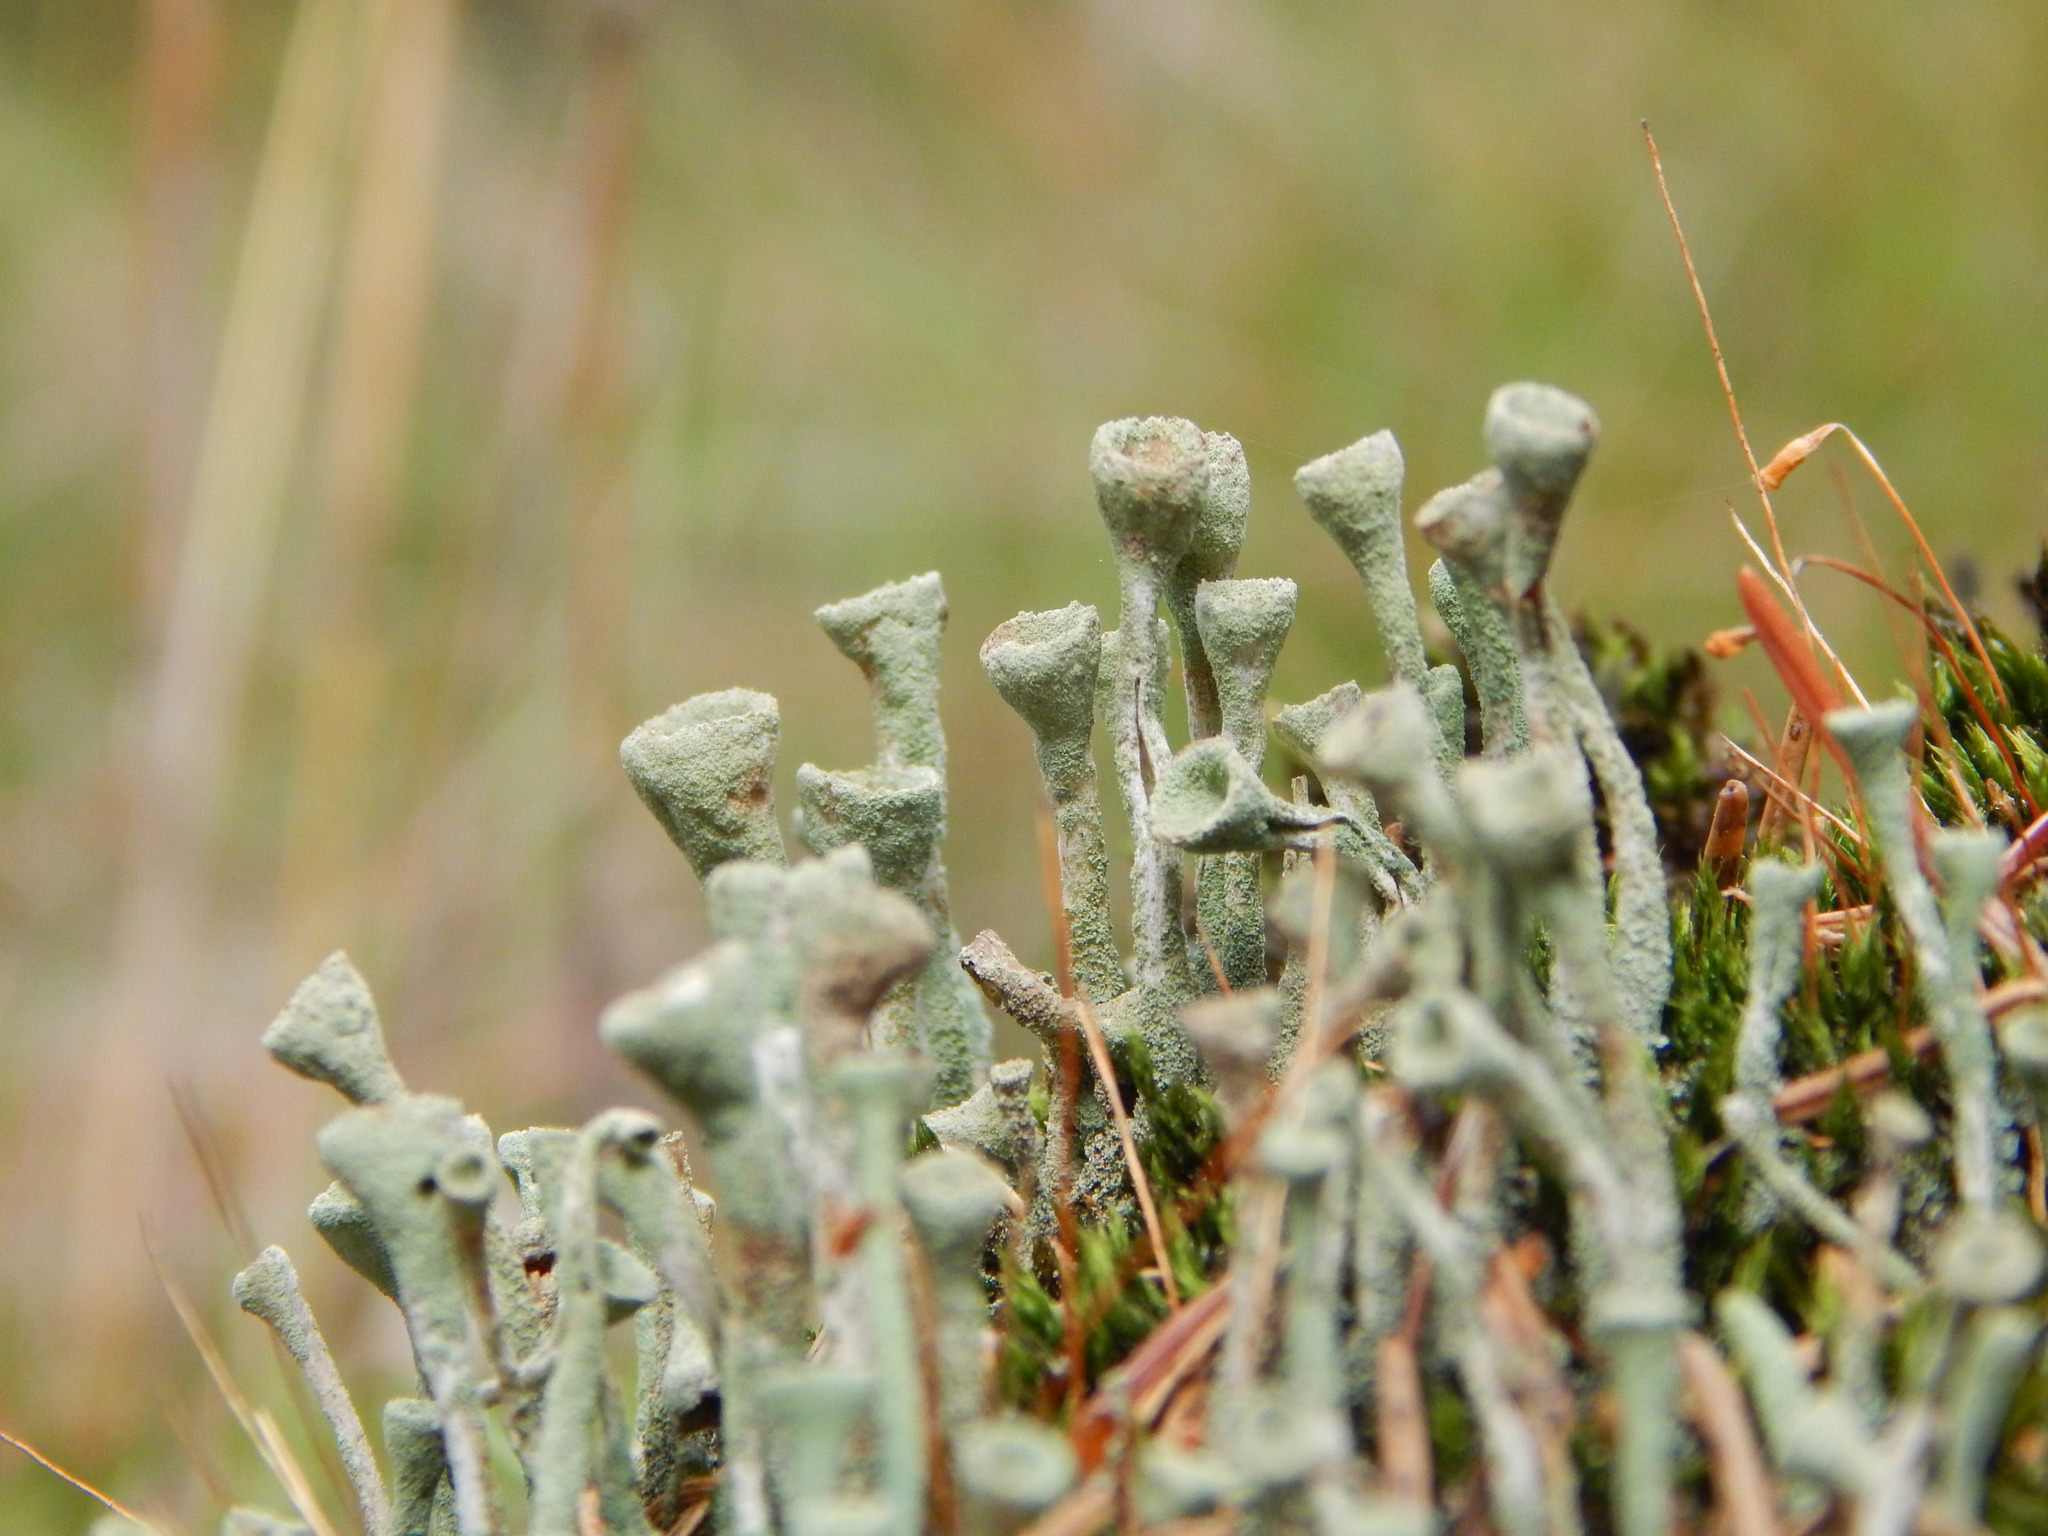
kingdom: Fungi
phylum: Ascomycota
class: Lecanoromycetes
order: Lecanorales
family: Cladoniaceae
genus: Cladonia
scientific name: Cladonia fimbriata
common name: Powdered trumpet lichen
